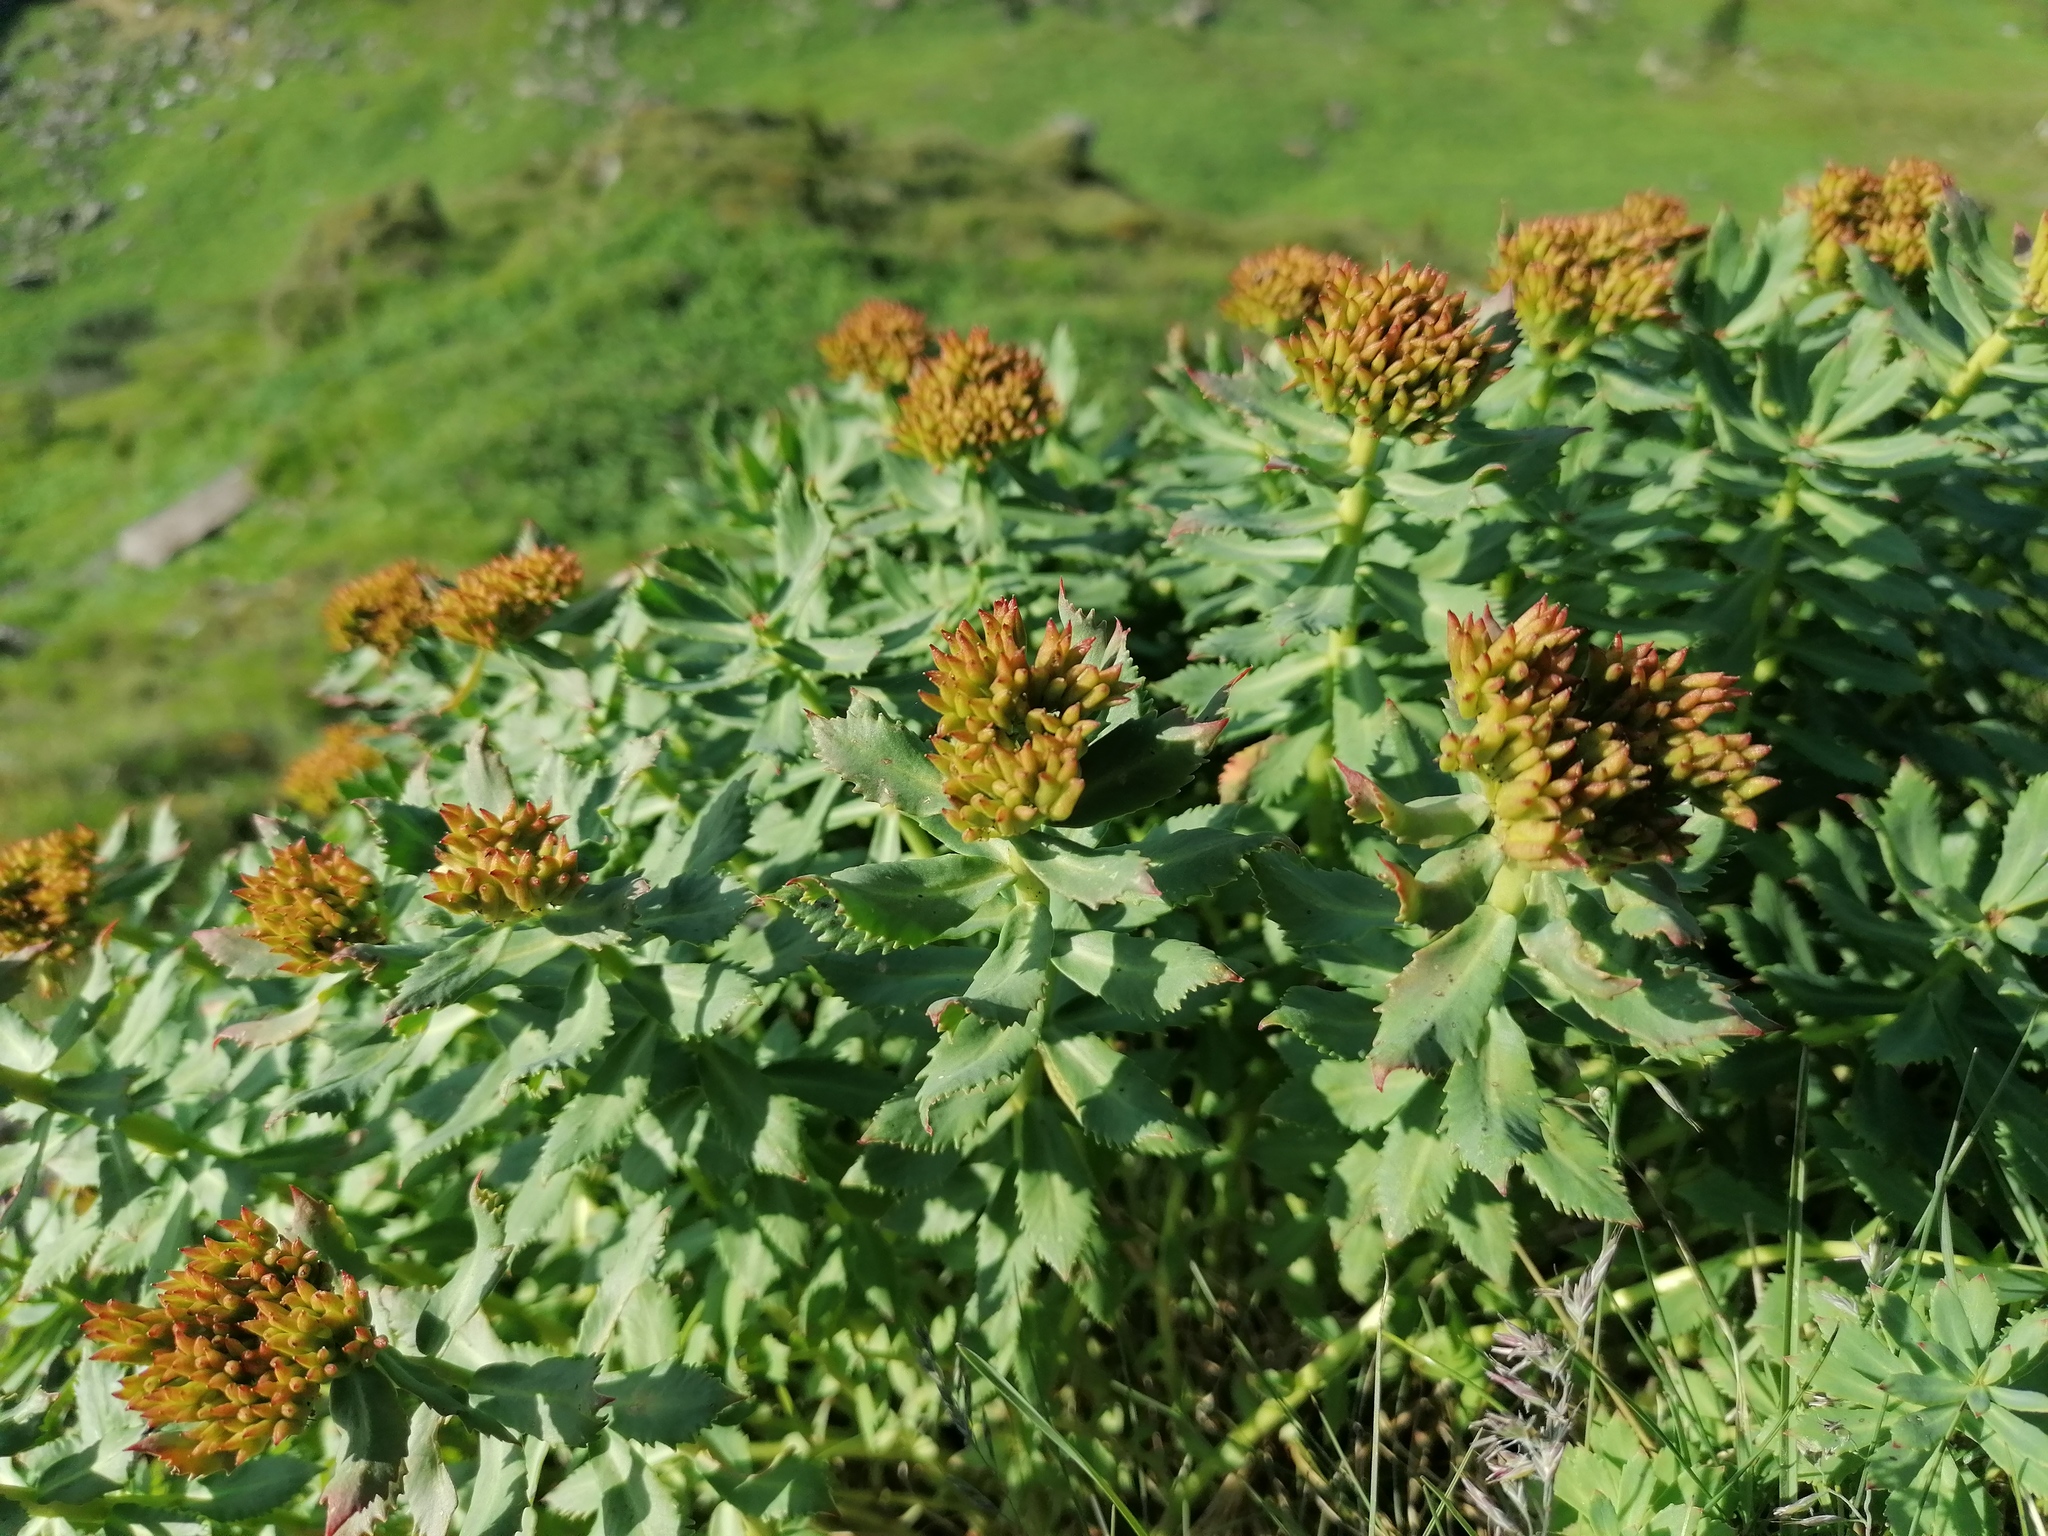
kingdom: Plantae
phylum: Tracheophyta
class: Magnoliopsida
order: Saxifragales
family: Crassulaceae
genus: Rhodiola
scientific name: Rhodiola rosea
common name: Roseroot
